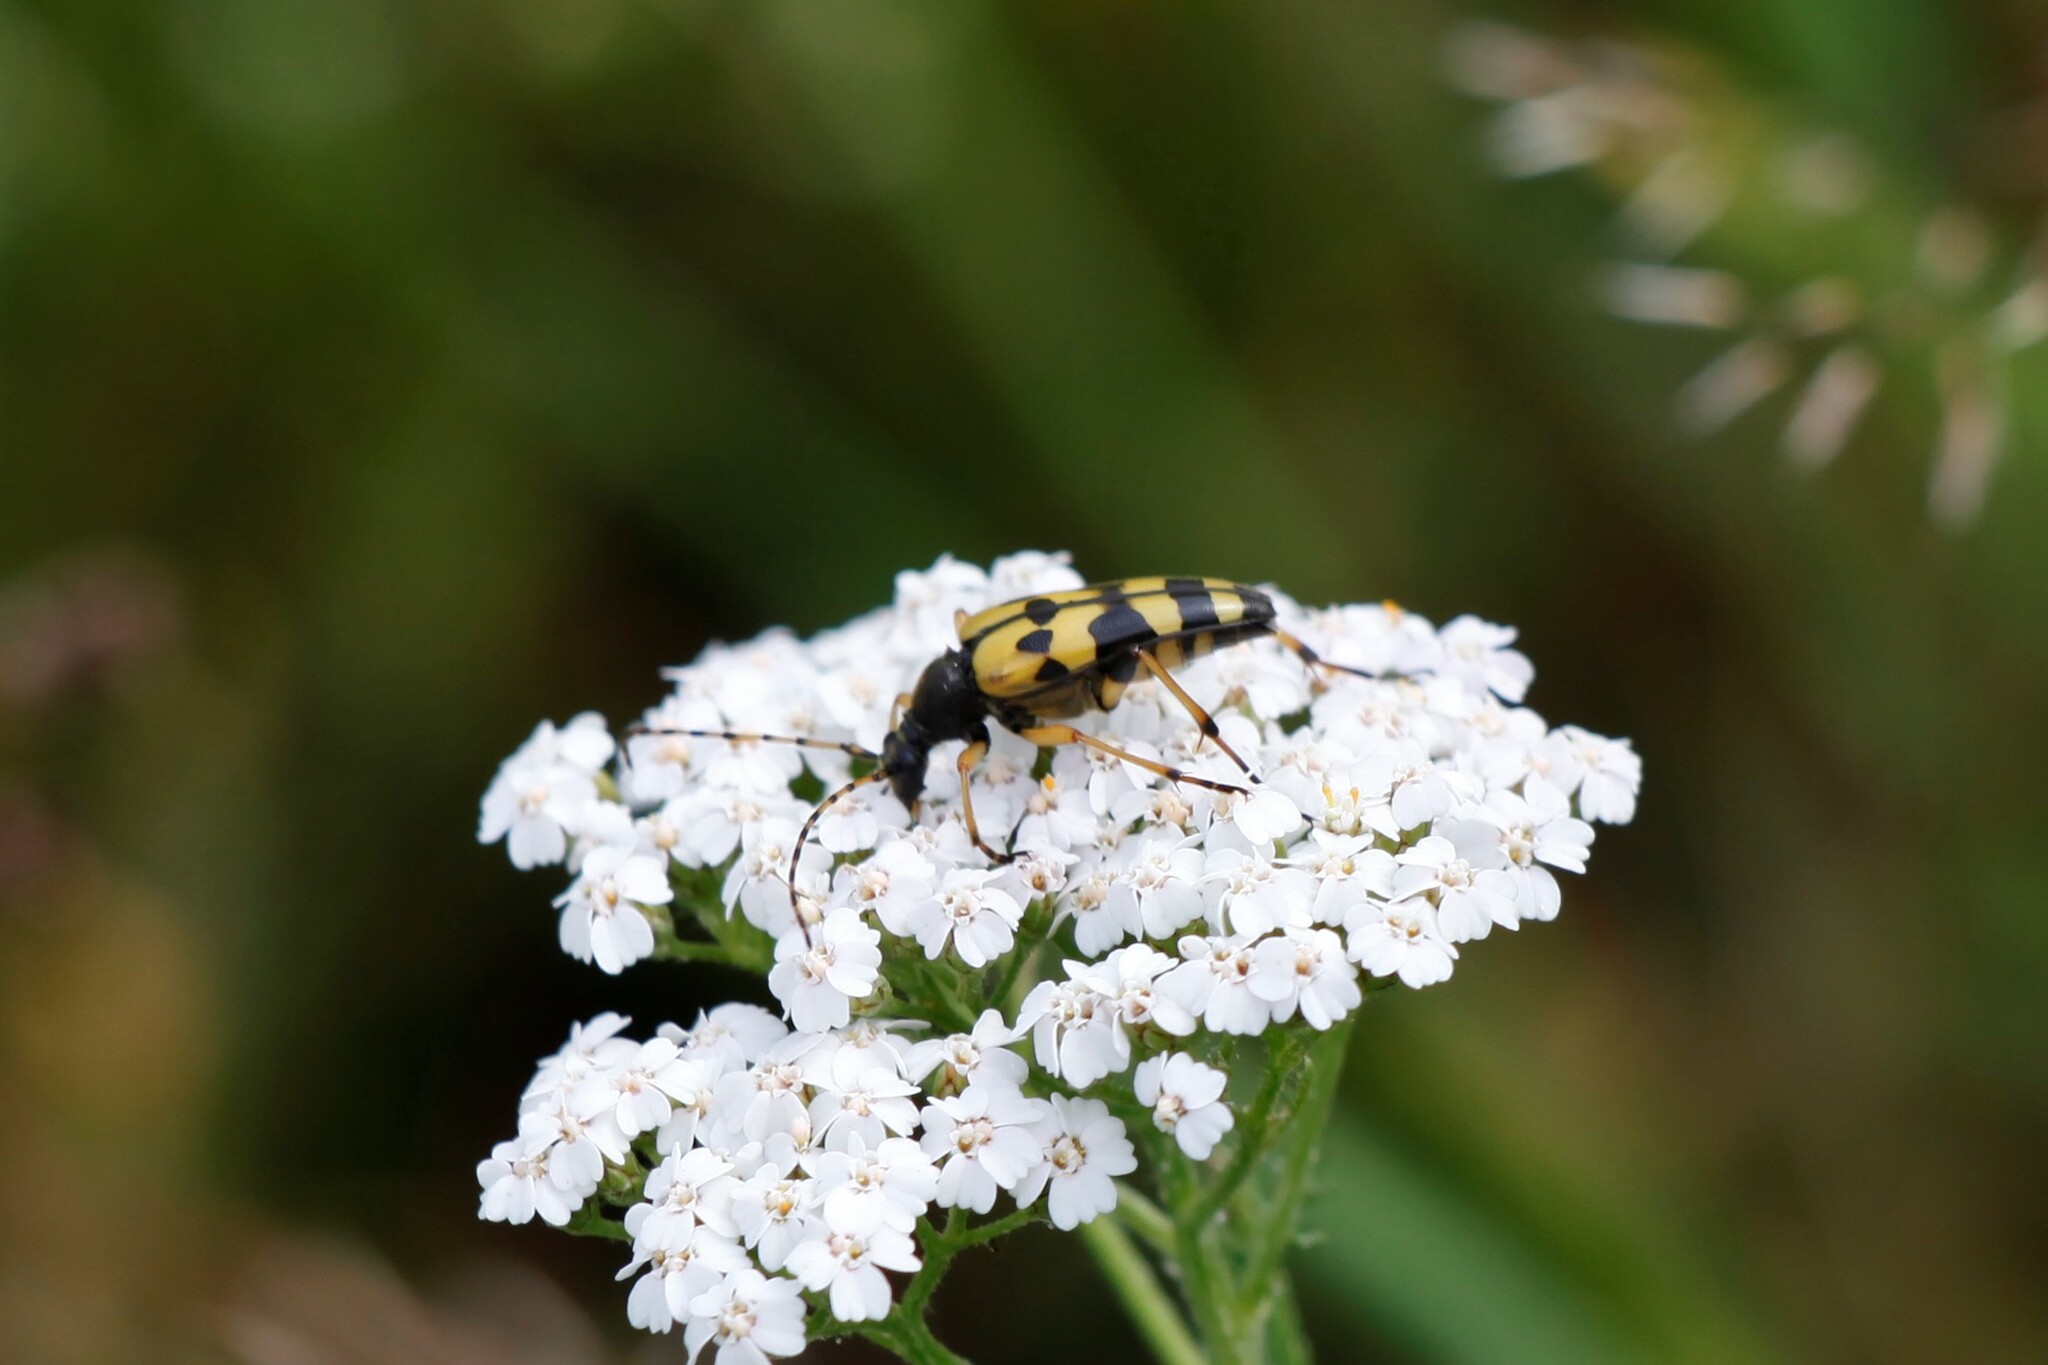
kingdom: Animalia
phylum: Arthropoda
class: Insecta
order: Coleoptera
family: Cerambycidae
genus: Rutpela
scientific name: Rutpela maculata
